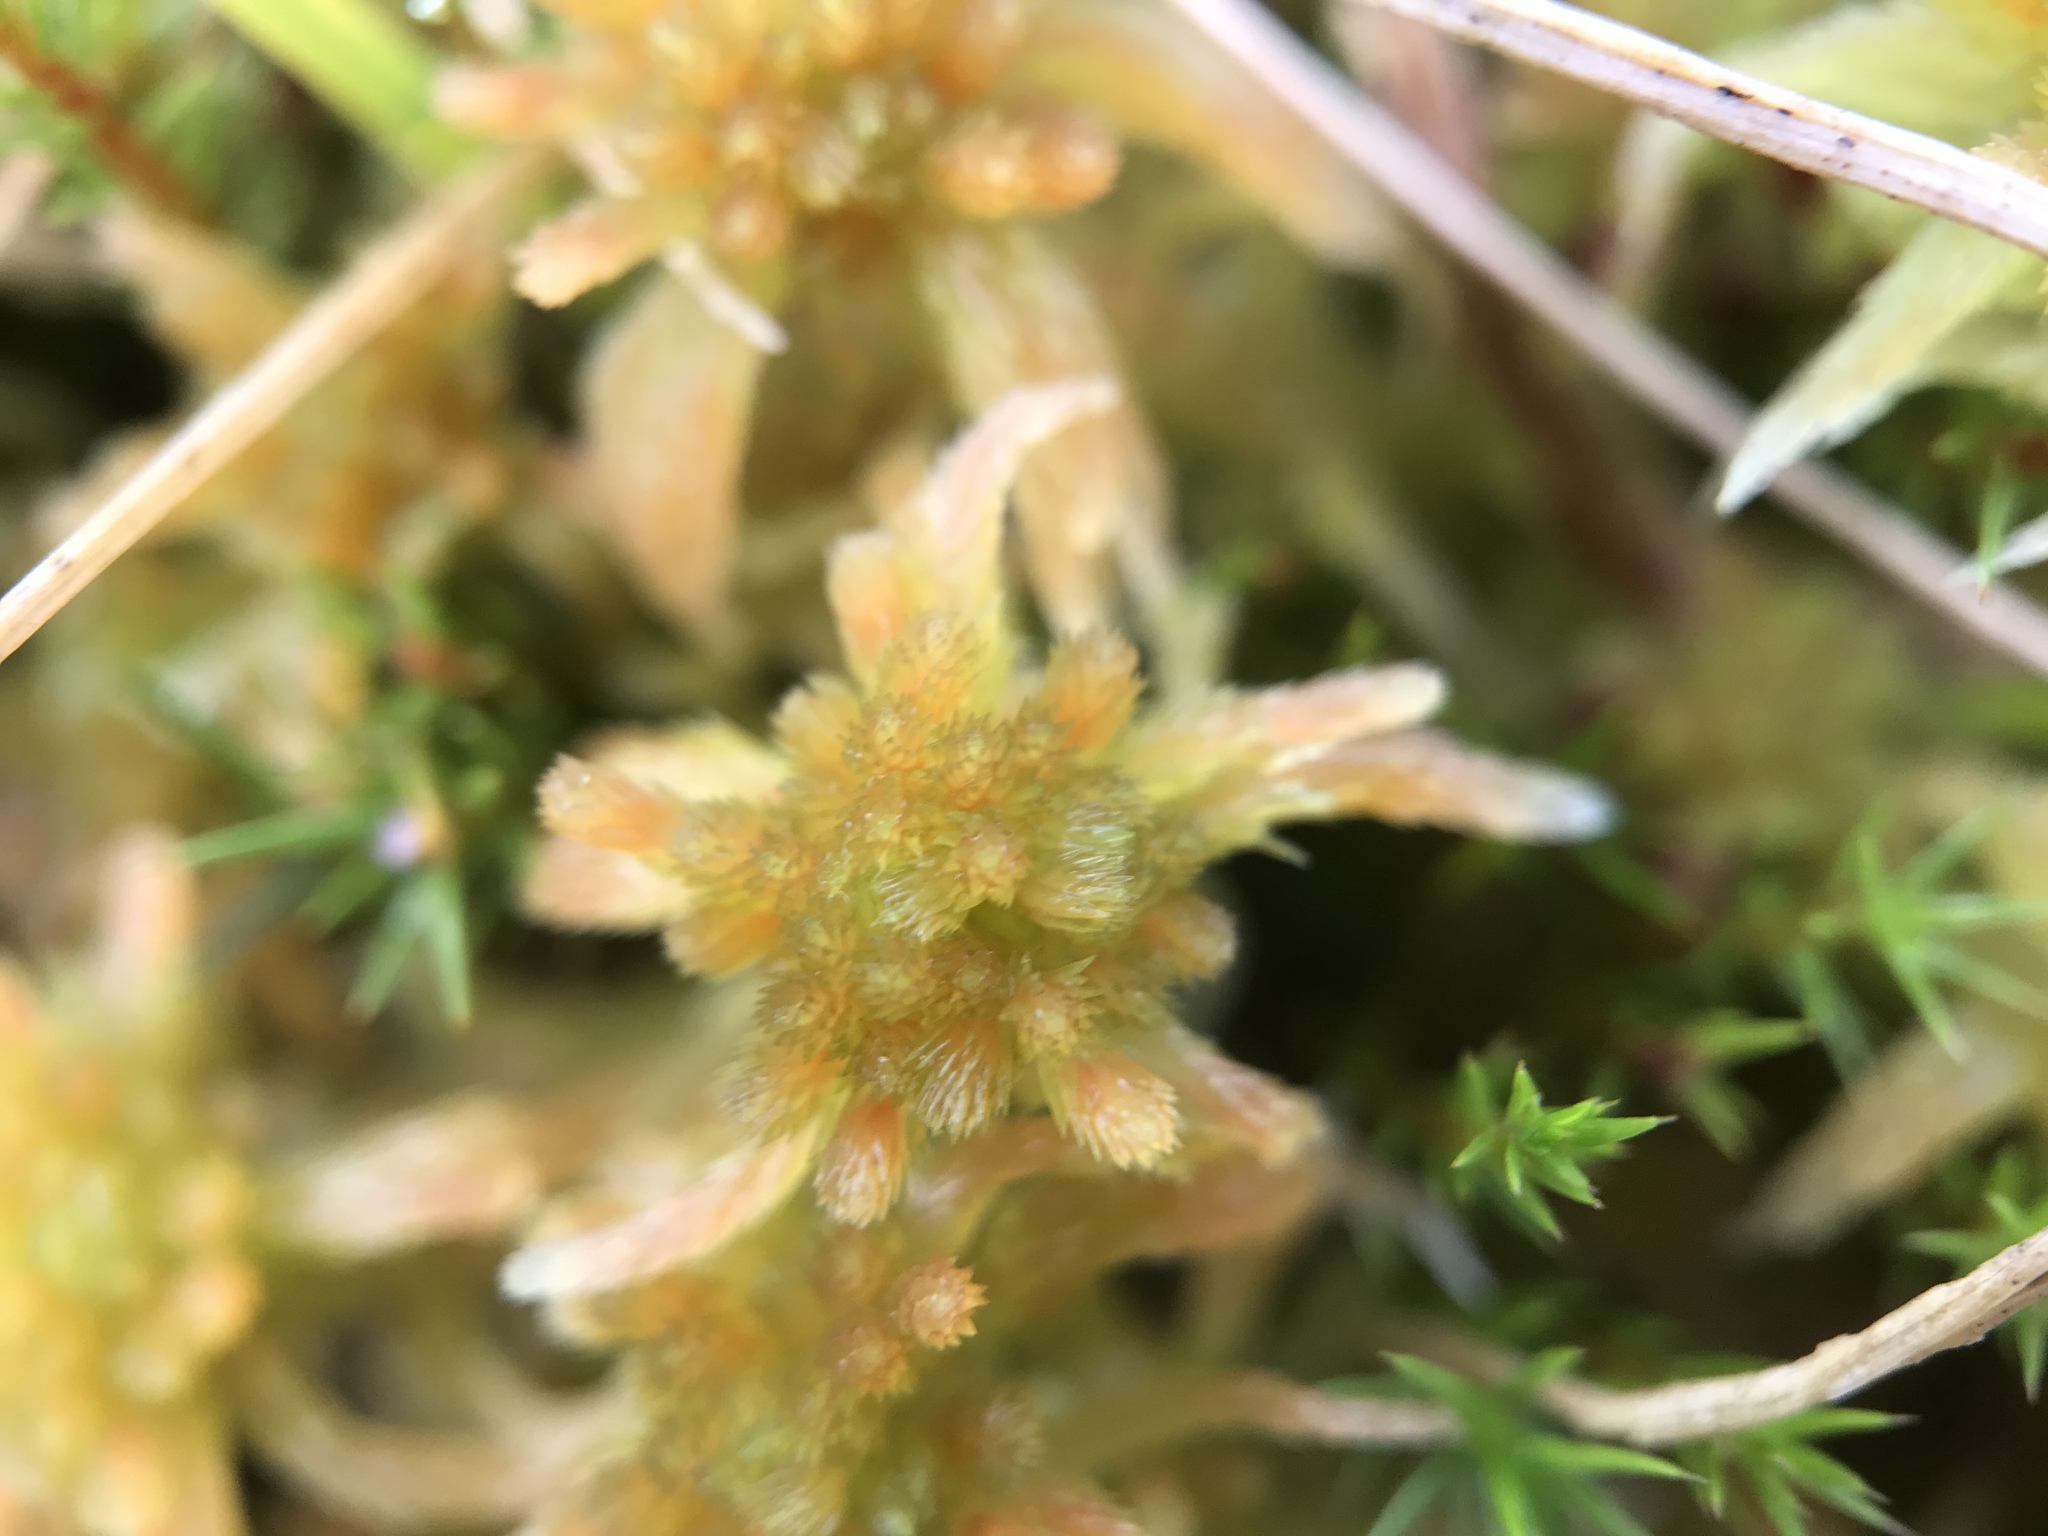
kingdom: Plantae
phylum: Bryophyta
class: Sphagnopsida
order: Sphagnales
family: Sphagnaceae
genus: Sphagnum
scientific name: Sphagnum subnitens
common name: Lustrous bog-moss
